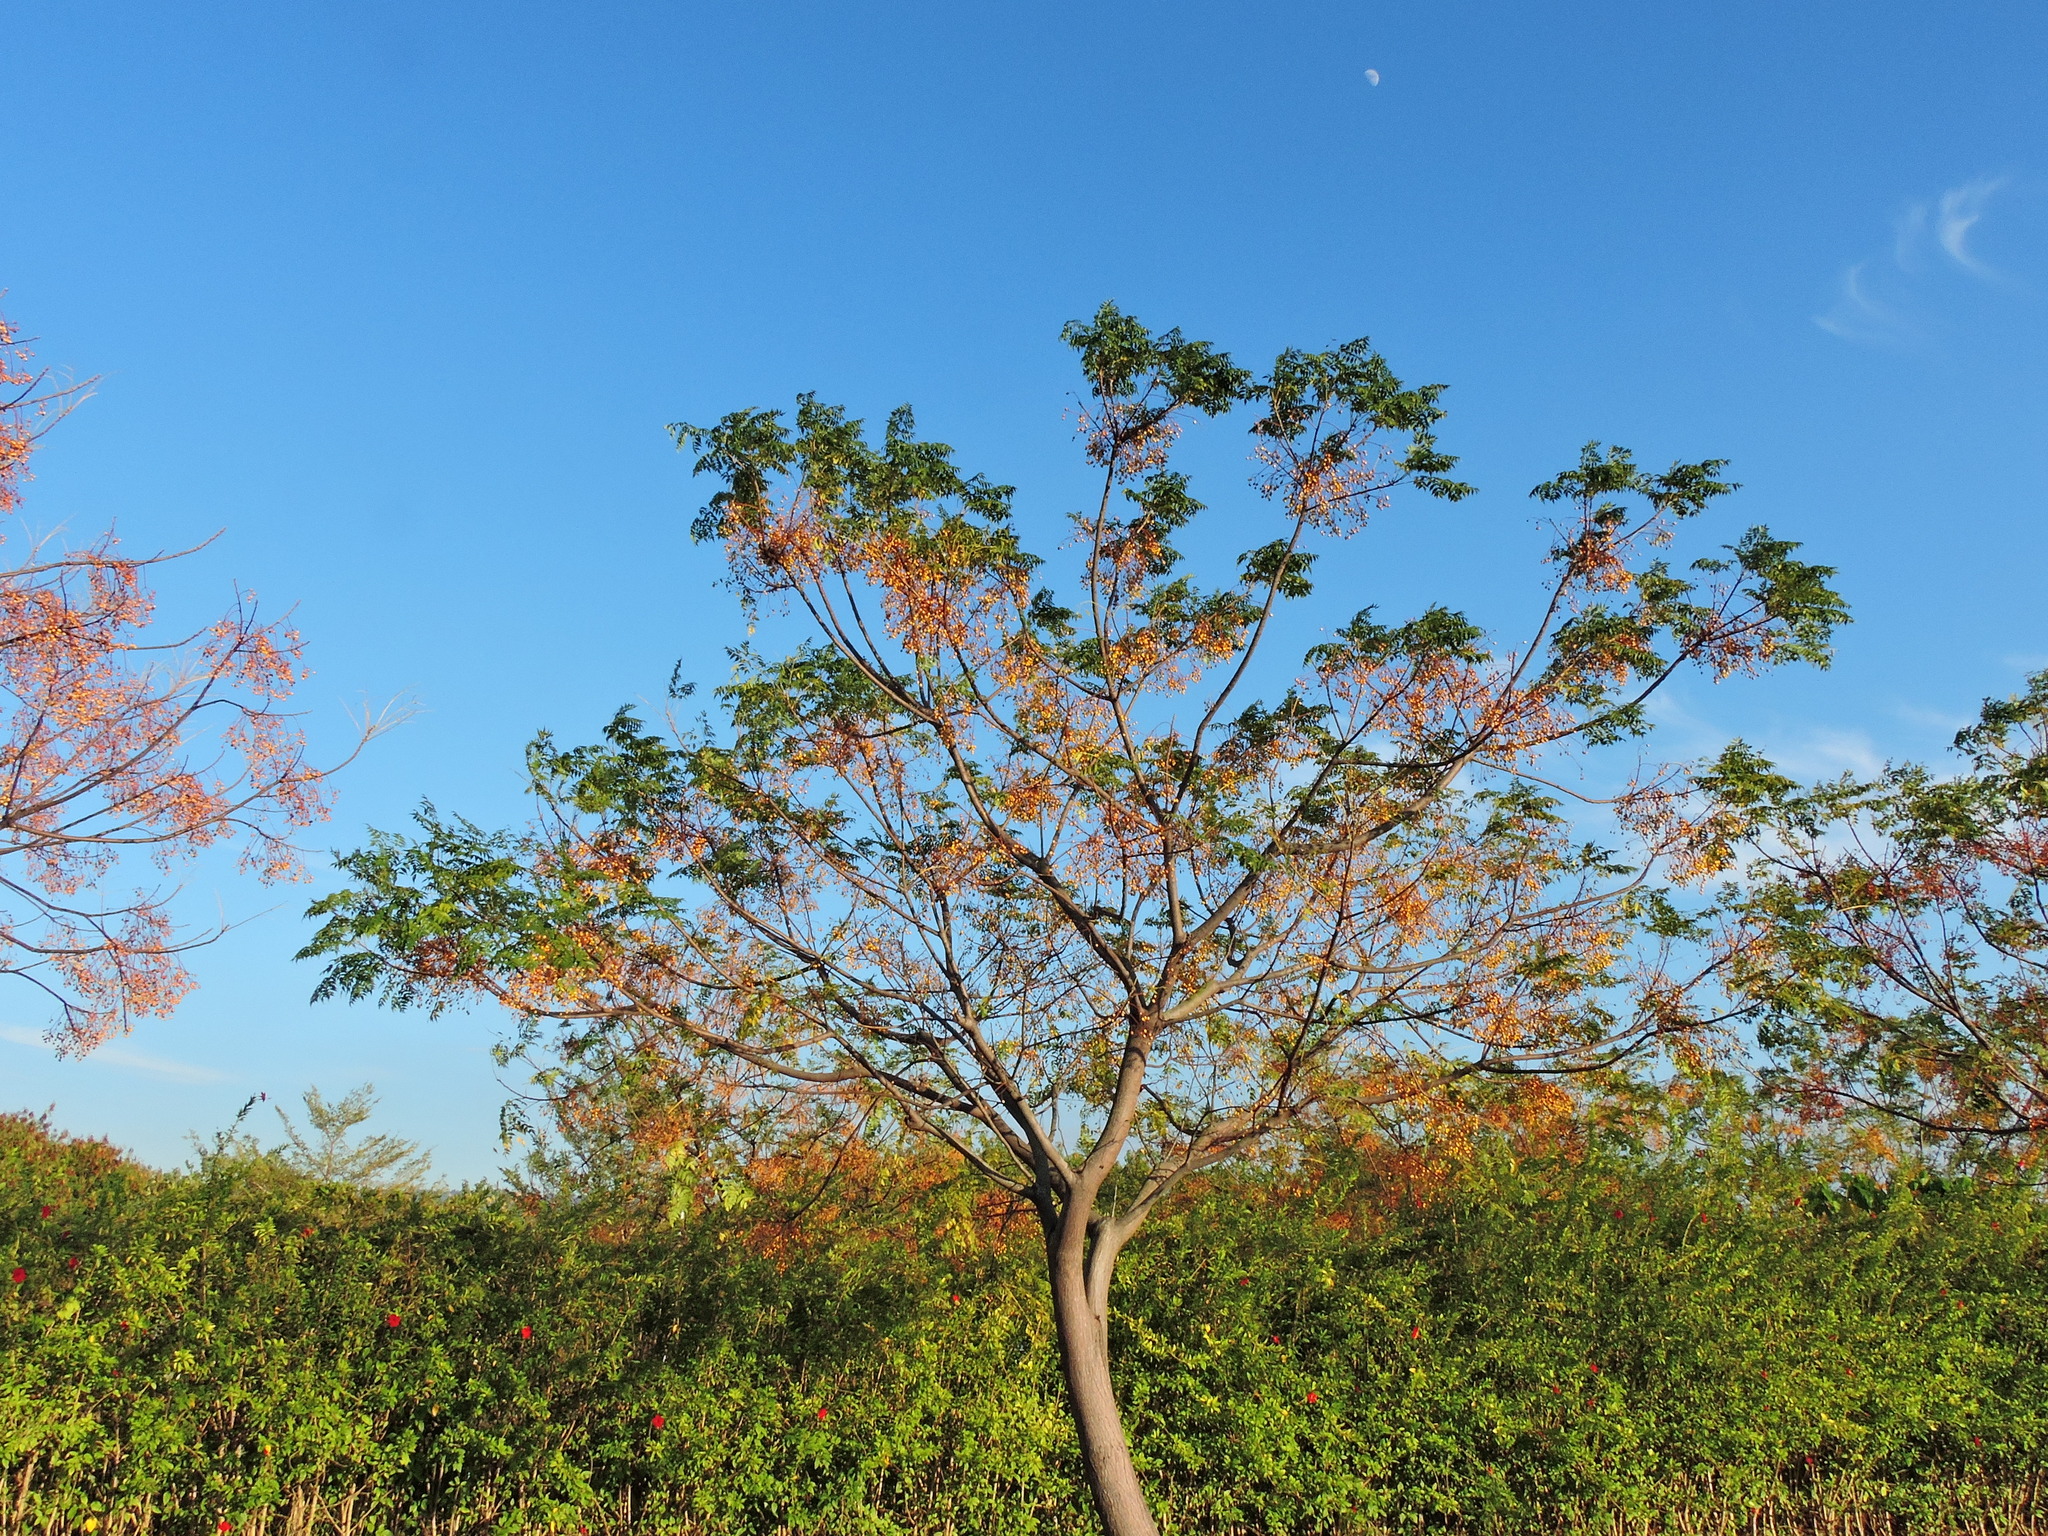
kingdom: Plantae
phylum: Tracheophyta
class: Magnoliopsida
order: Sapindales
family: Meliaceae
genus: Melia
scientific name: Melia azedarach
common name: Chinaberrytree
